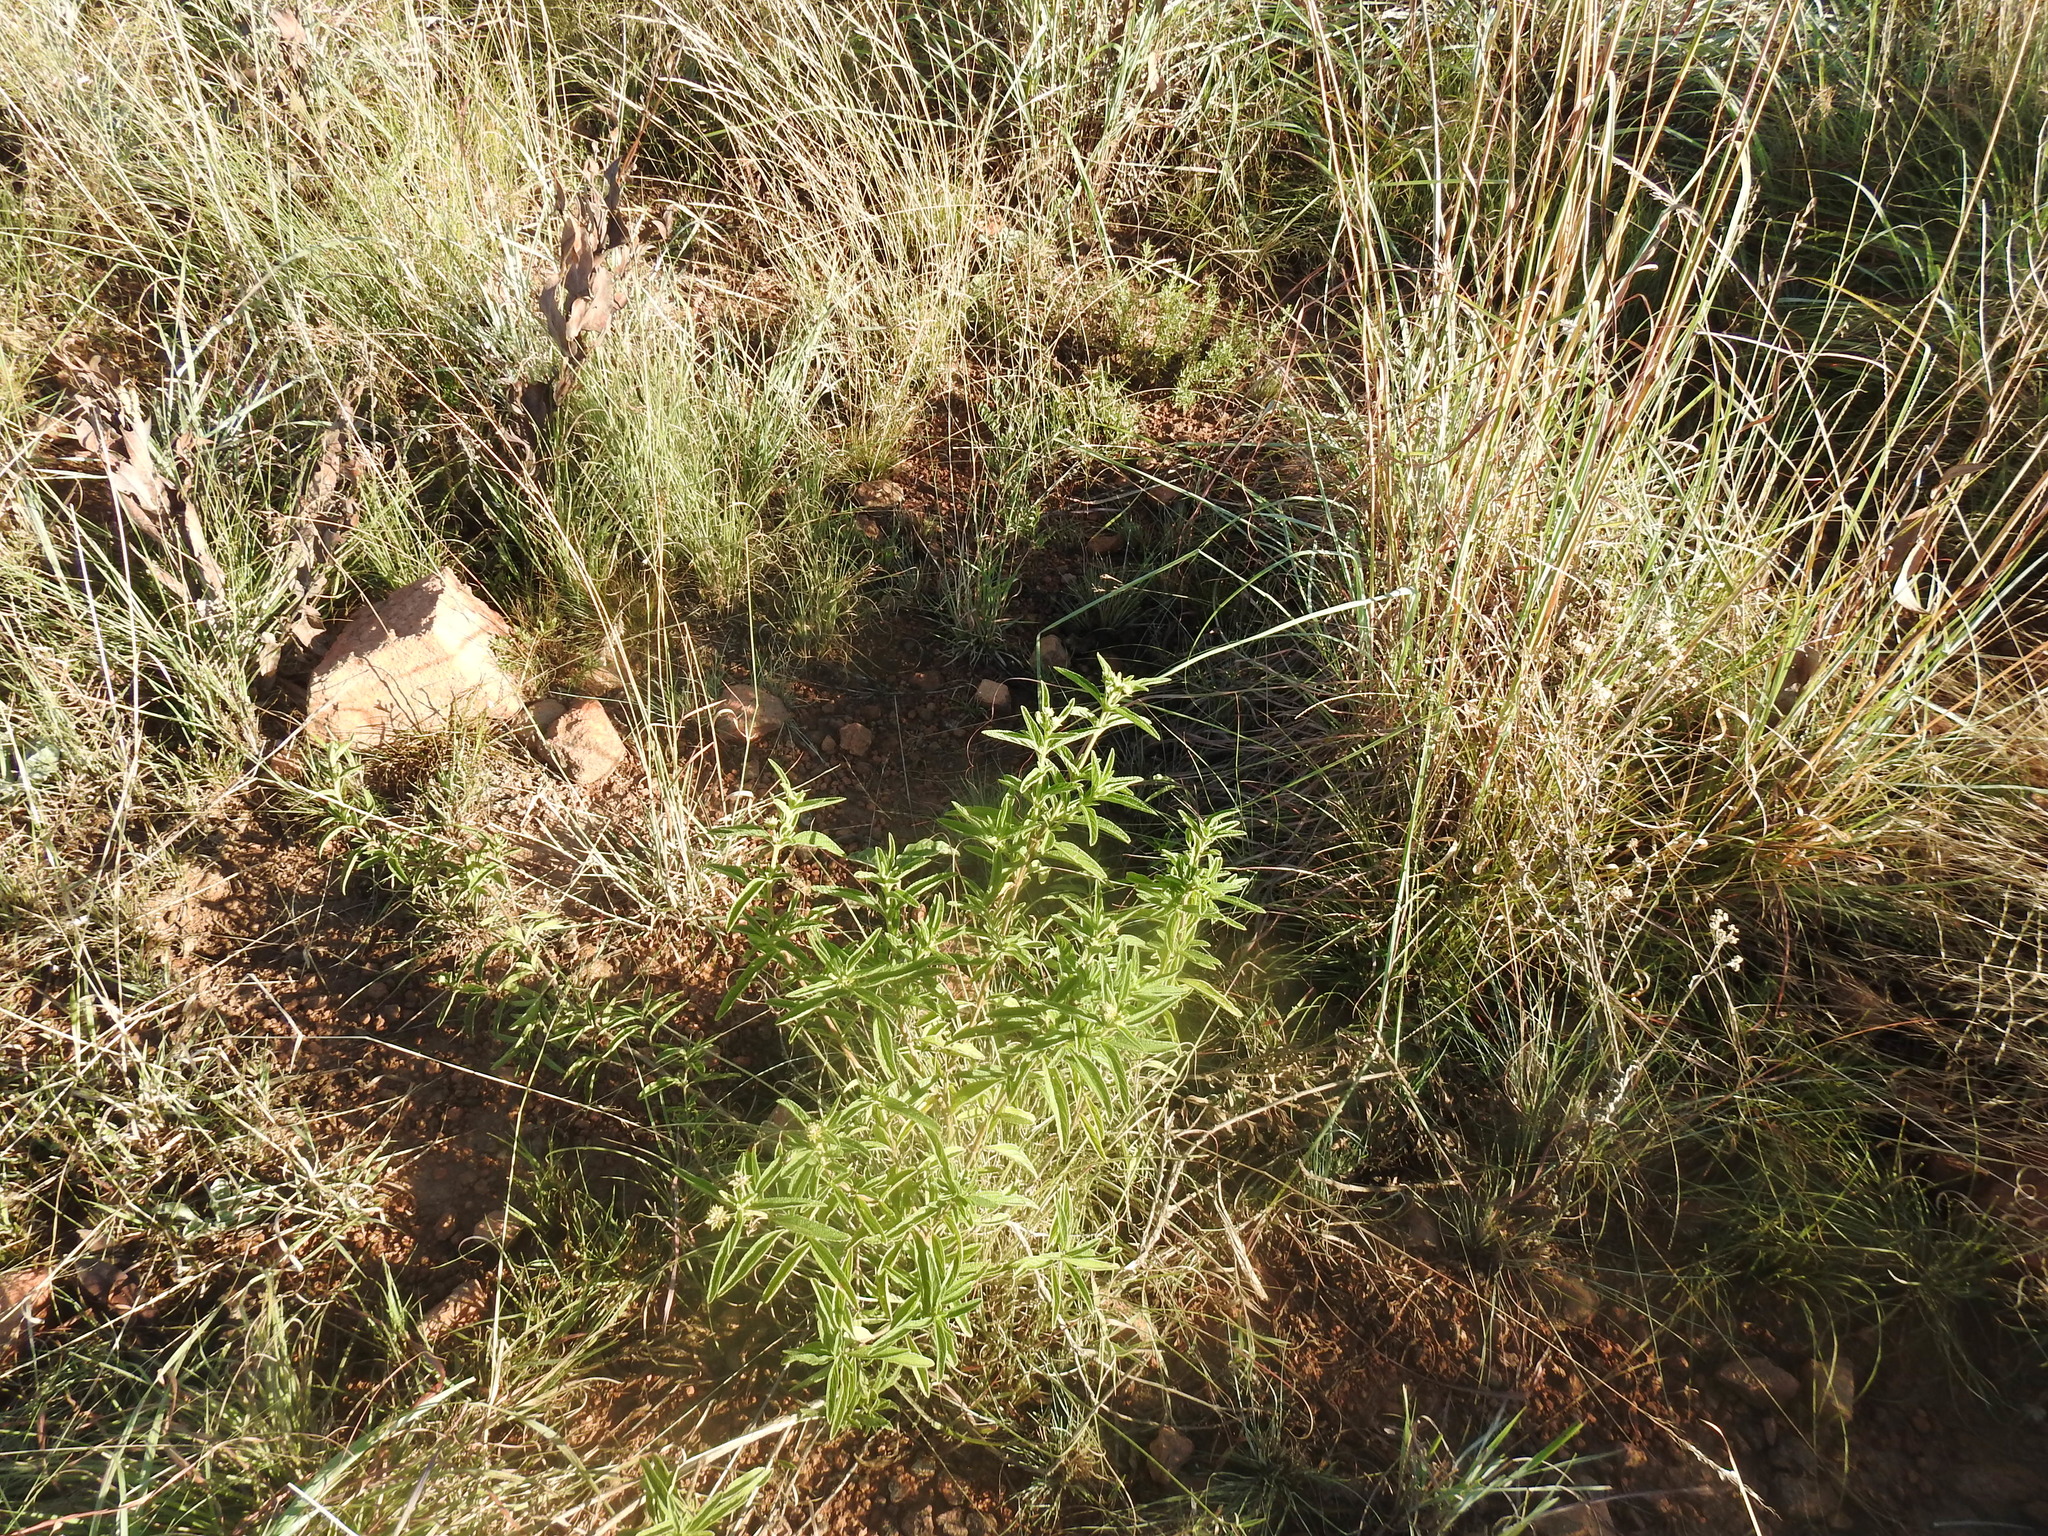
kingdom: Plantae
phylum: Tracheophyta
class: Magnoliopsida
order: Lamiales
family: Verbenaceae
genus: Lippia
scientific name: Lippia javanica
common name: Lemonbush
